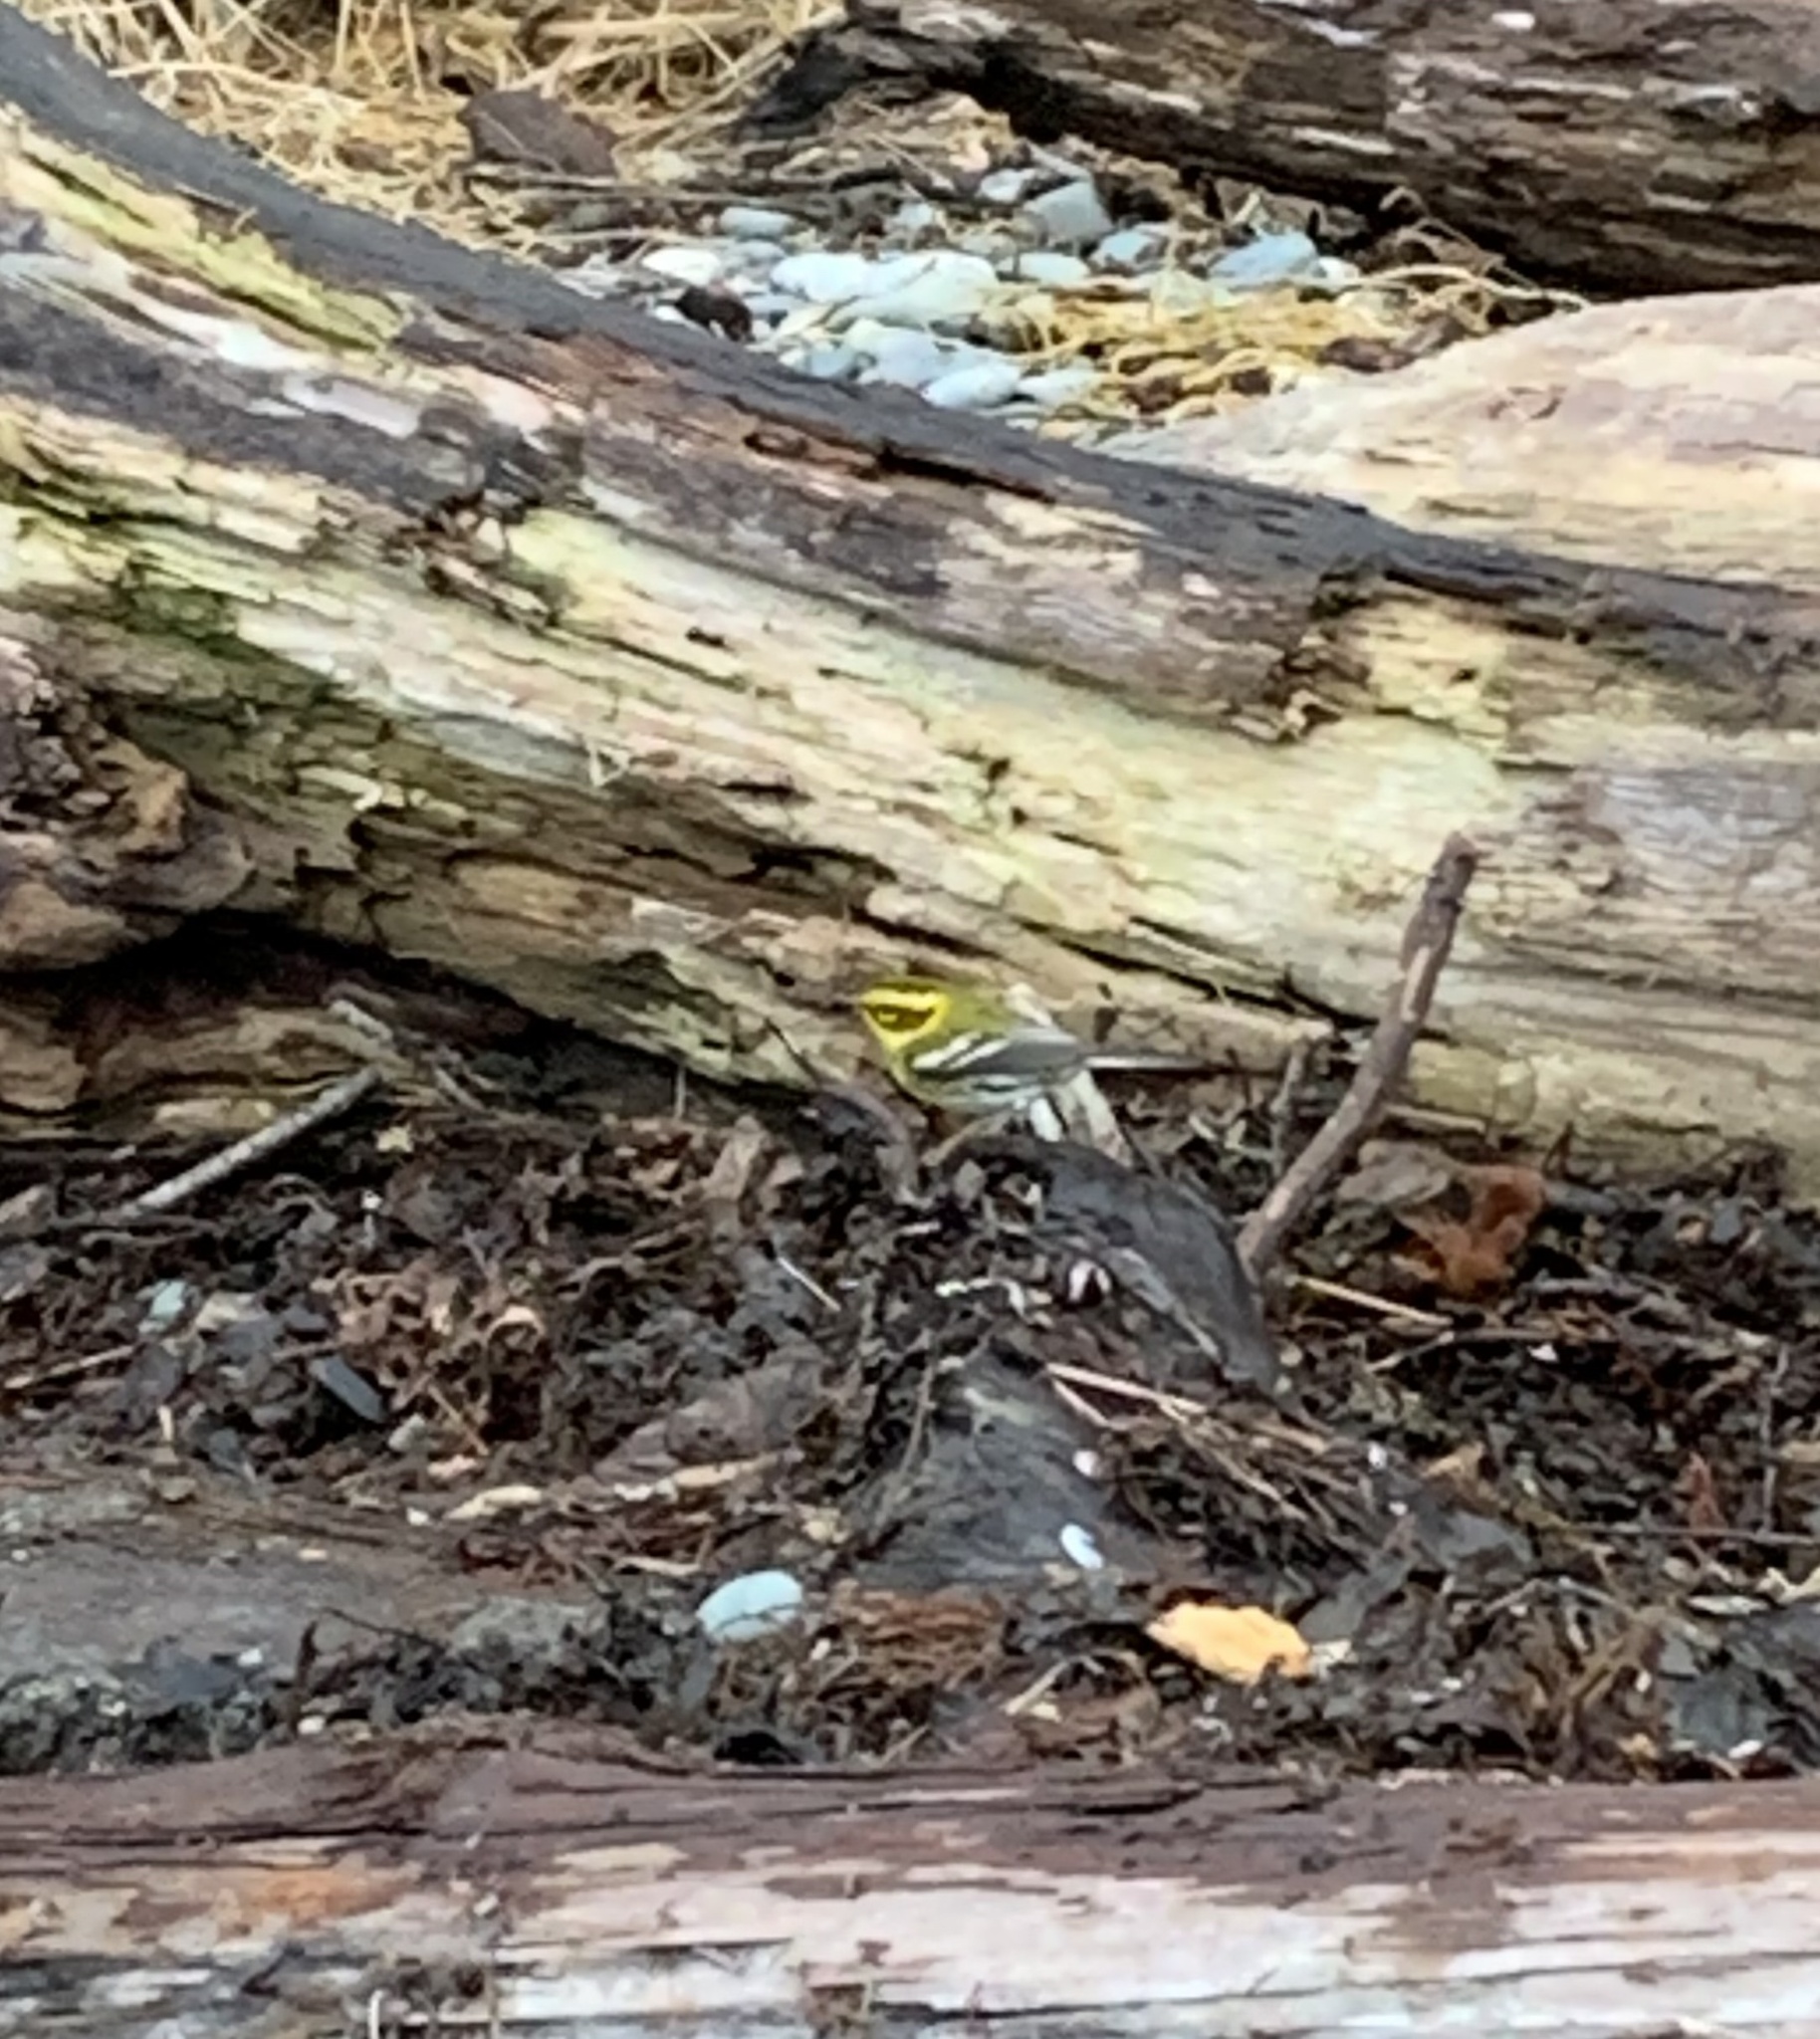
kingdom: Animalia
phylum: Chordata
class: Aves
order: Passeriformes
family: Parulidae
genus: Setophaga
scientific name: Setophaga townsendi
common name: Townsend's warbler
